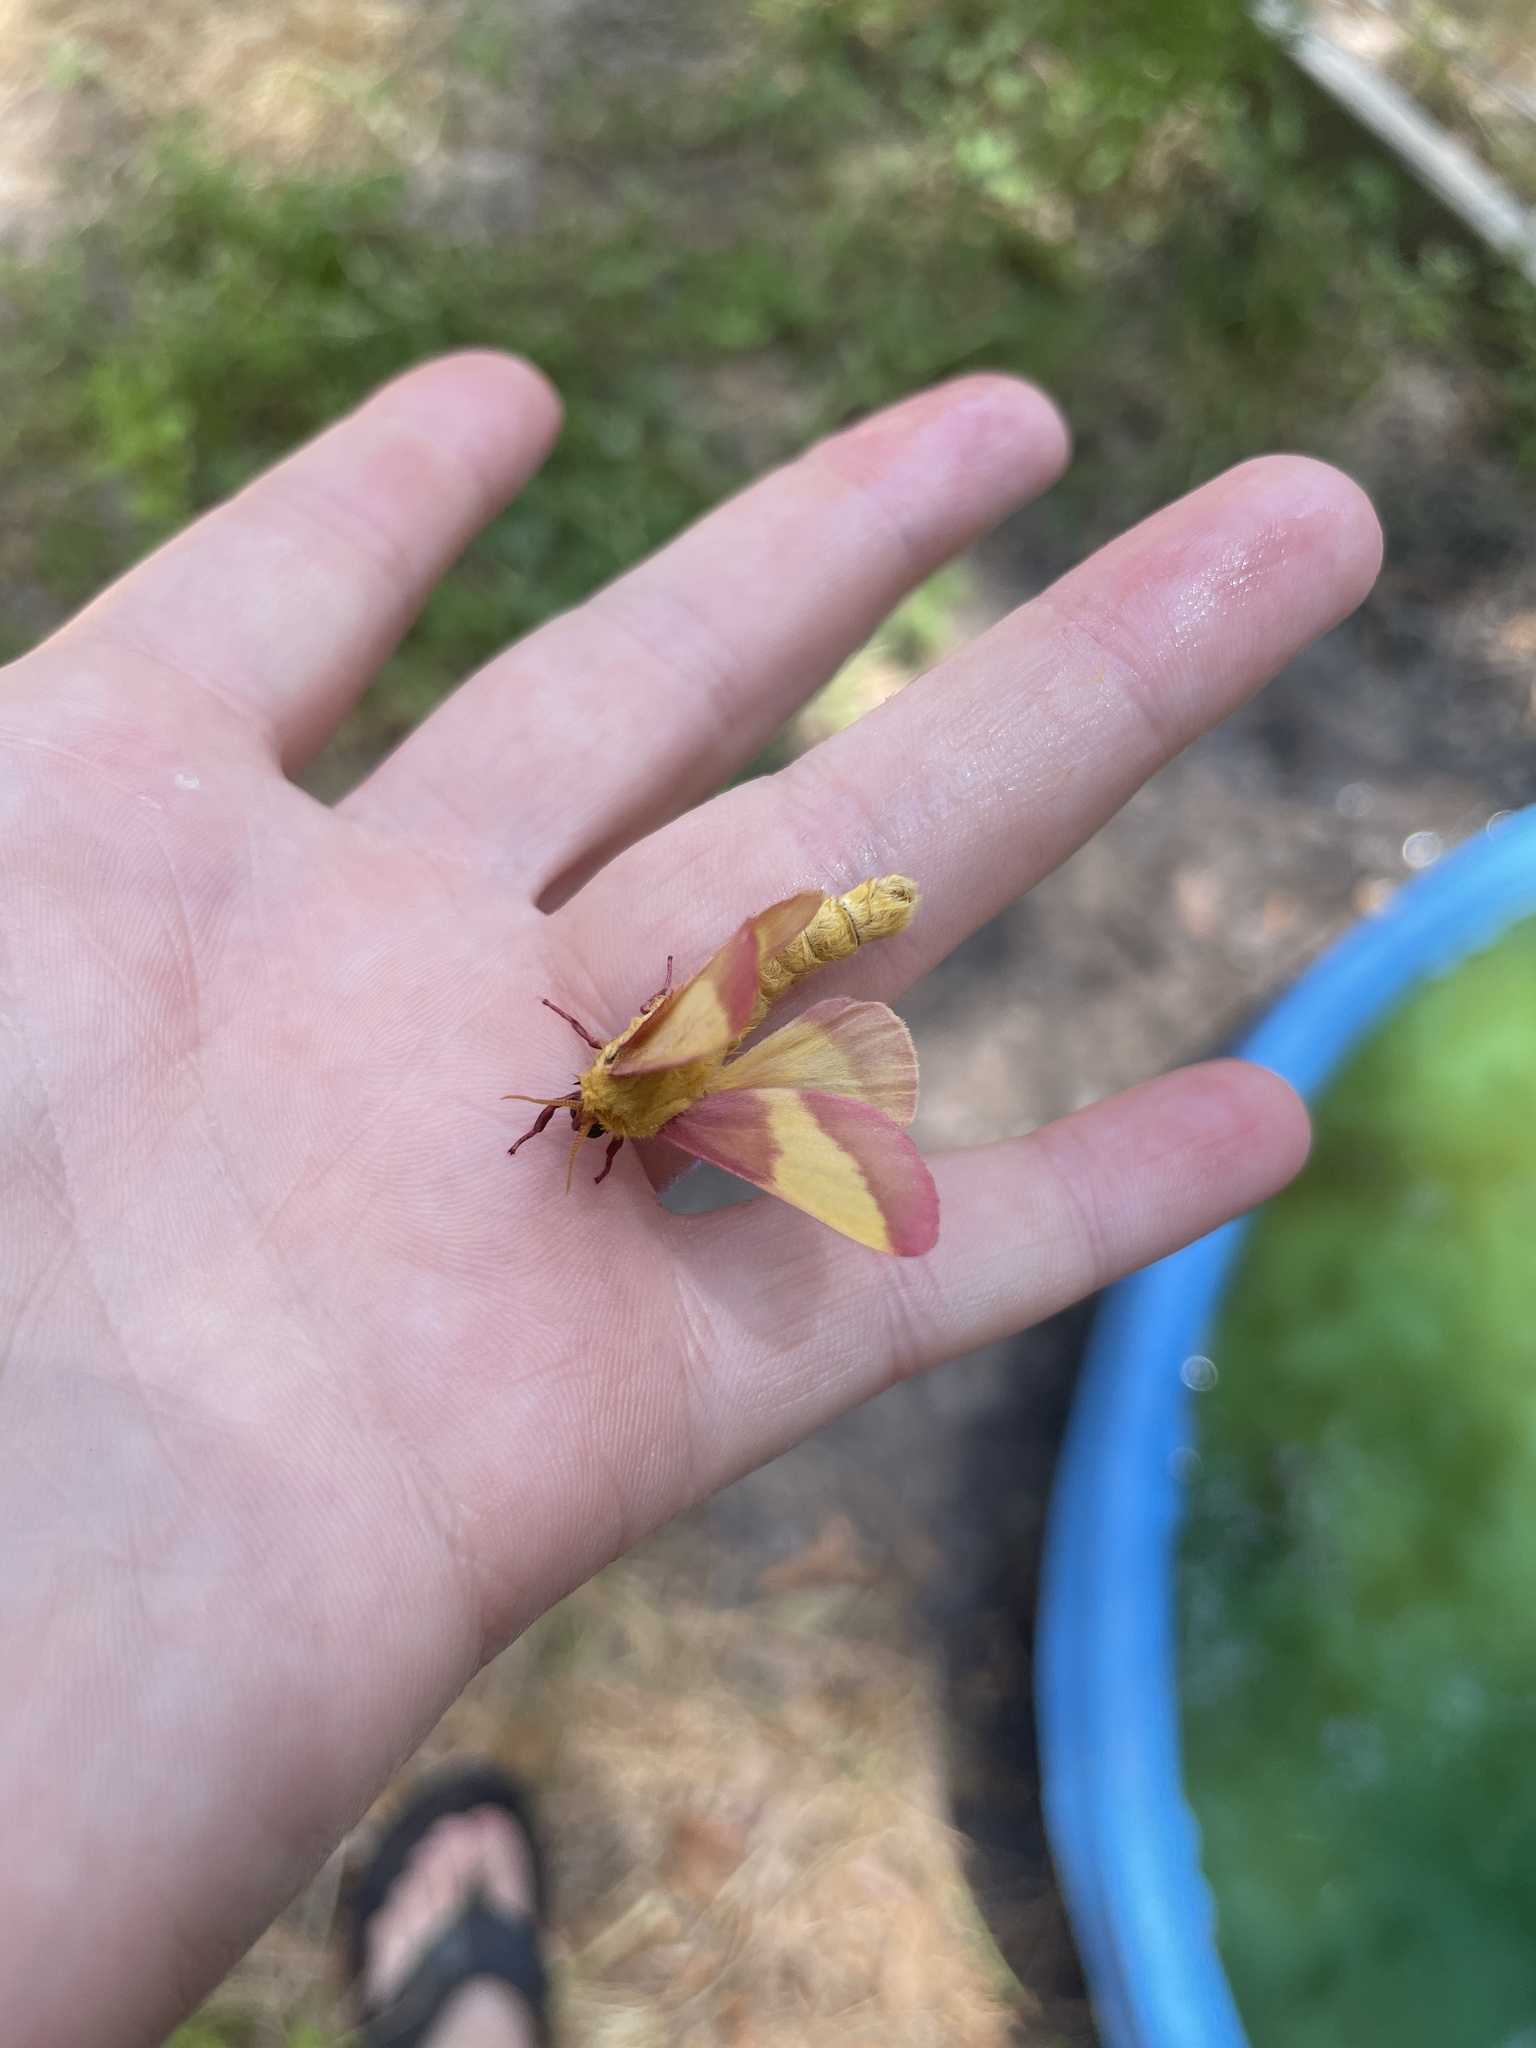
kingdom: Animalia
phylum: Arthropoda
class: Insecta
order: Lepidoptera
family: Saturniidae
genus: Dryocampa
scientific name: Dryocampa rubicunda
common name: Rosy maple moth
